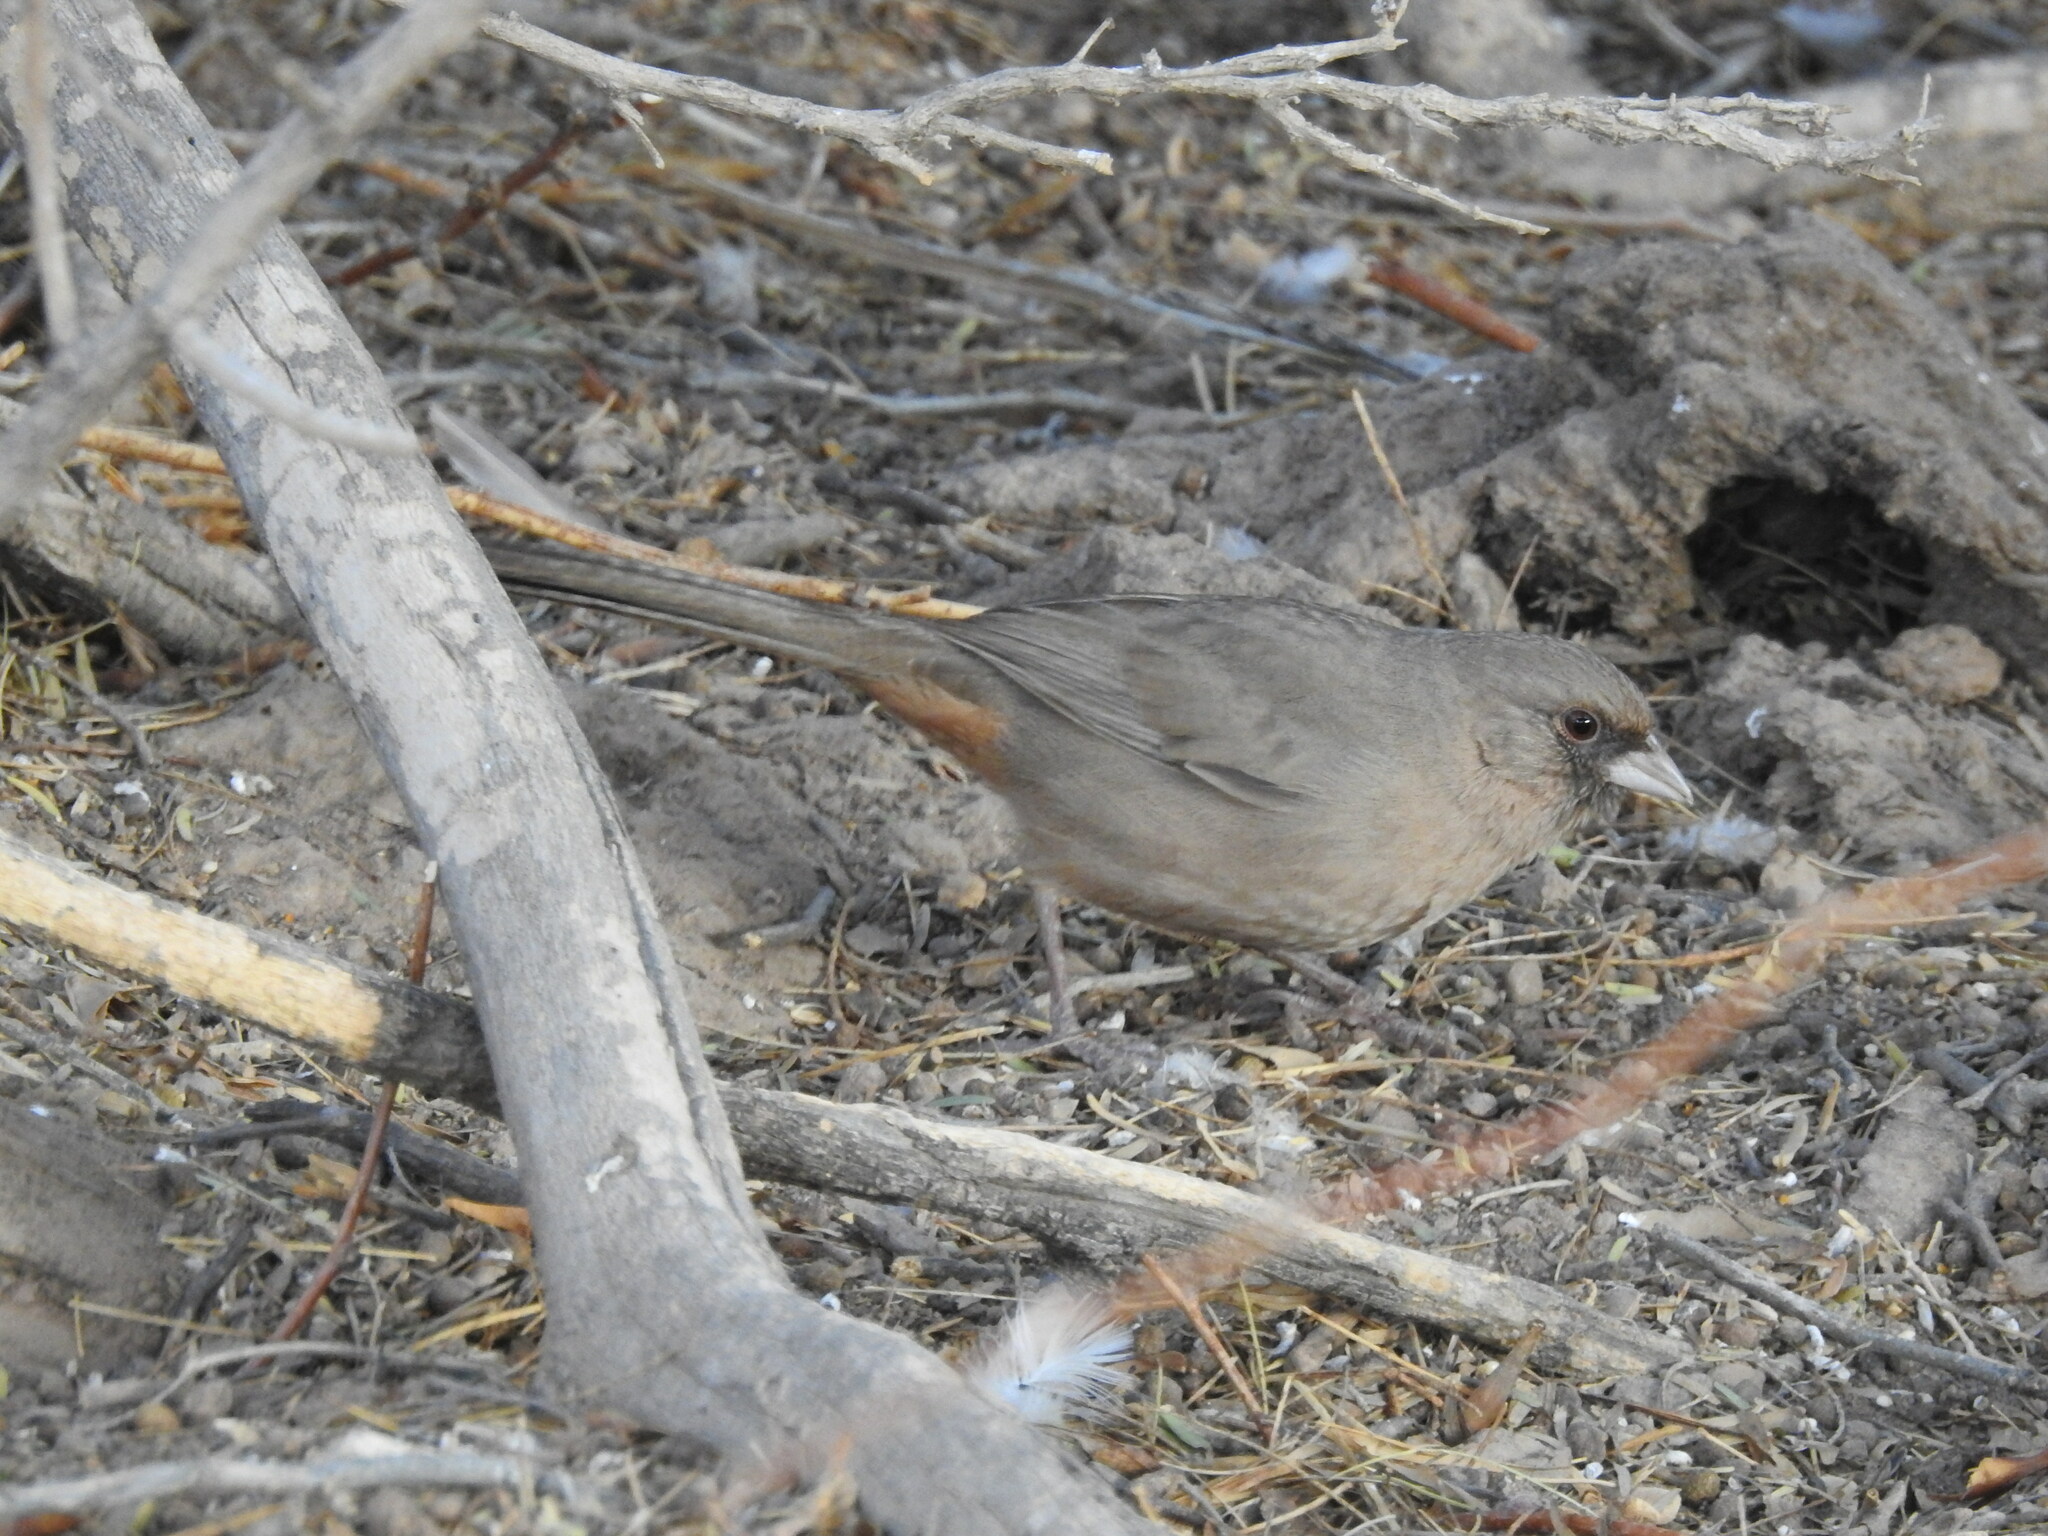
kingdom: Animalia
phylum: Chordata
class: Aves
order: Passeriformes
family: Passerellidae
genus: Melozone
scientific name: Melozone aberti
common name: Abert's towhee
